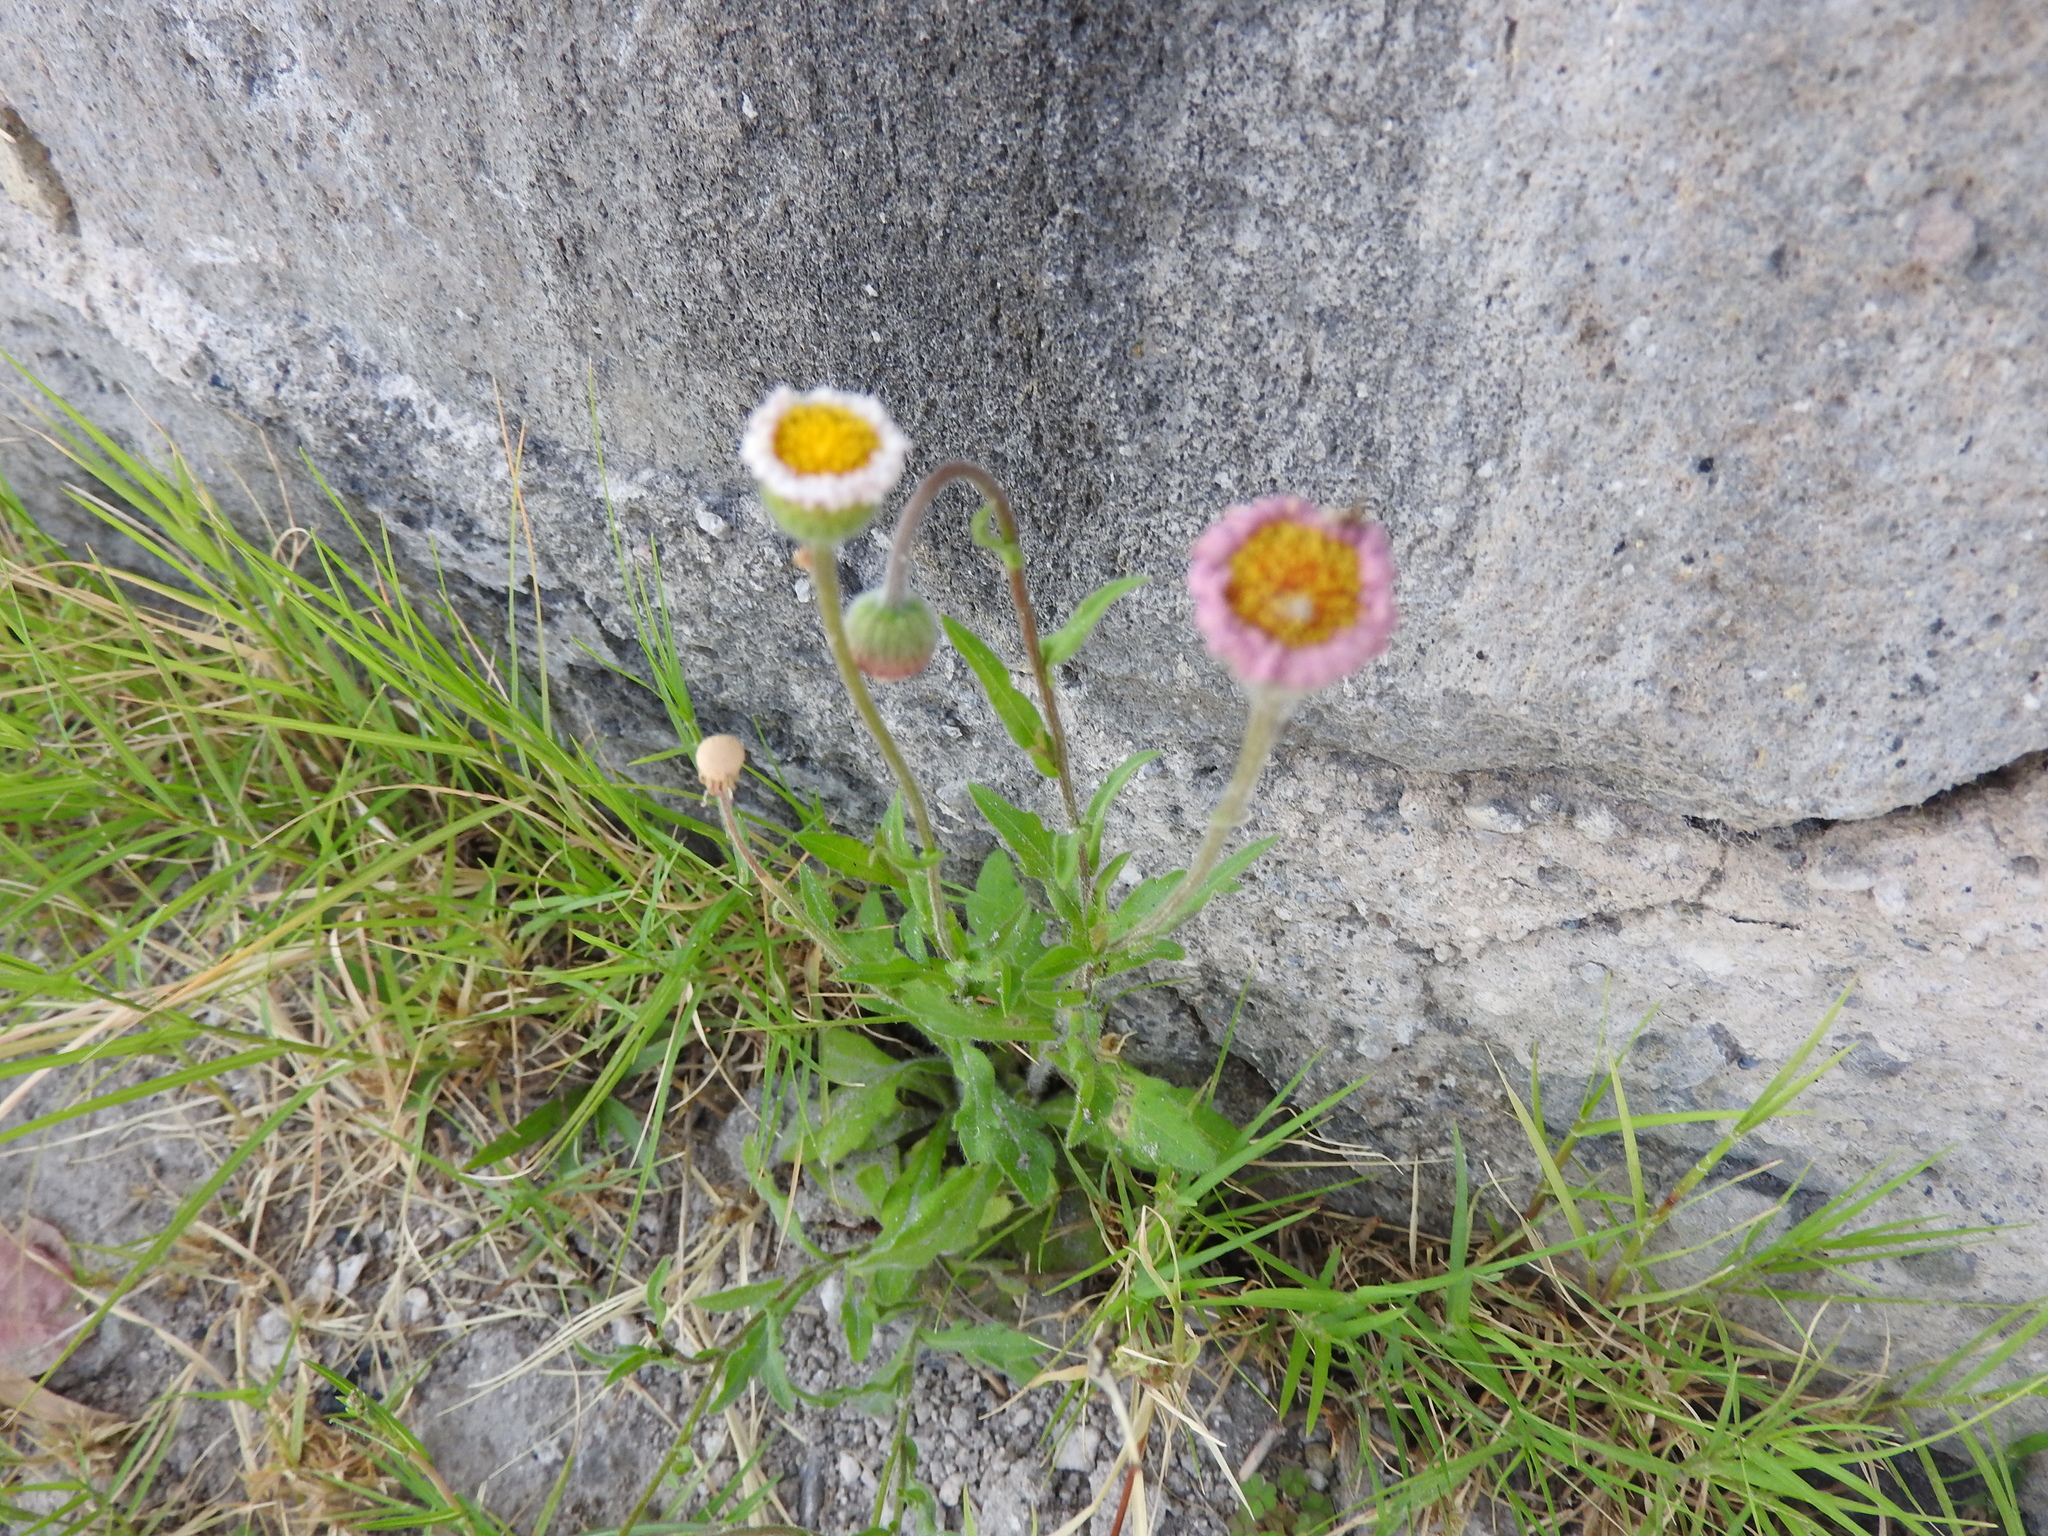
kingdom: Plantae
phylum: Tracheophyta
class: Magnoliopsida
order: Asterales
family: Asteraceae
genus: Erigeron
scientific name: Erigeron longipes
